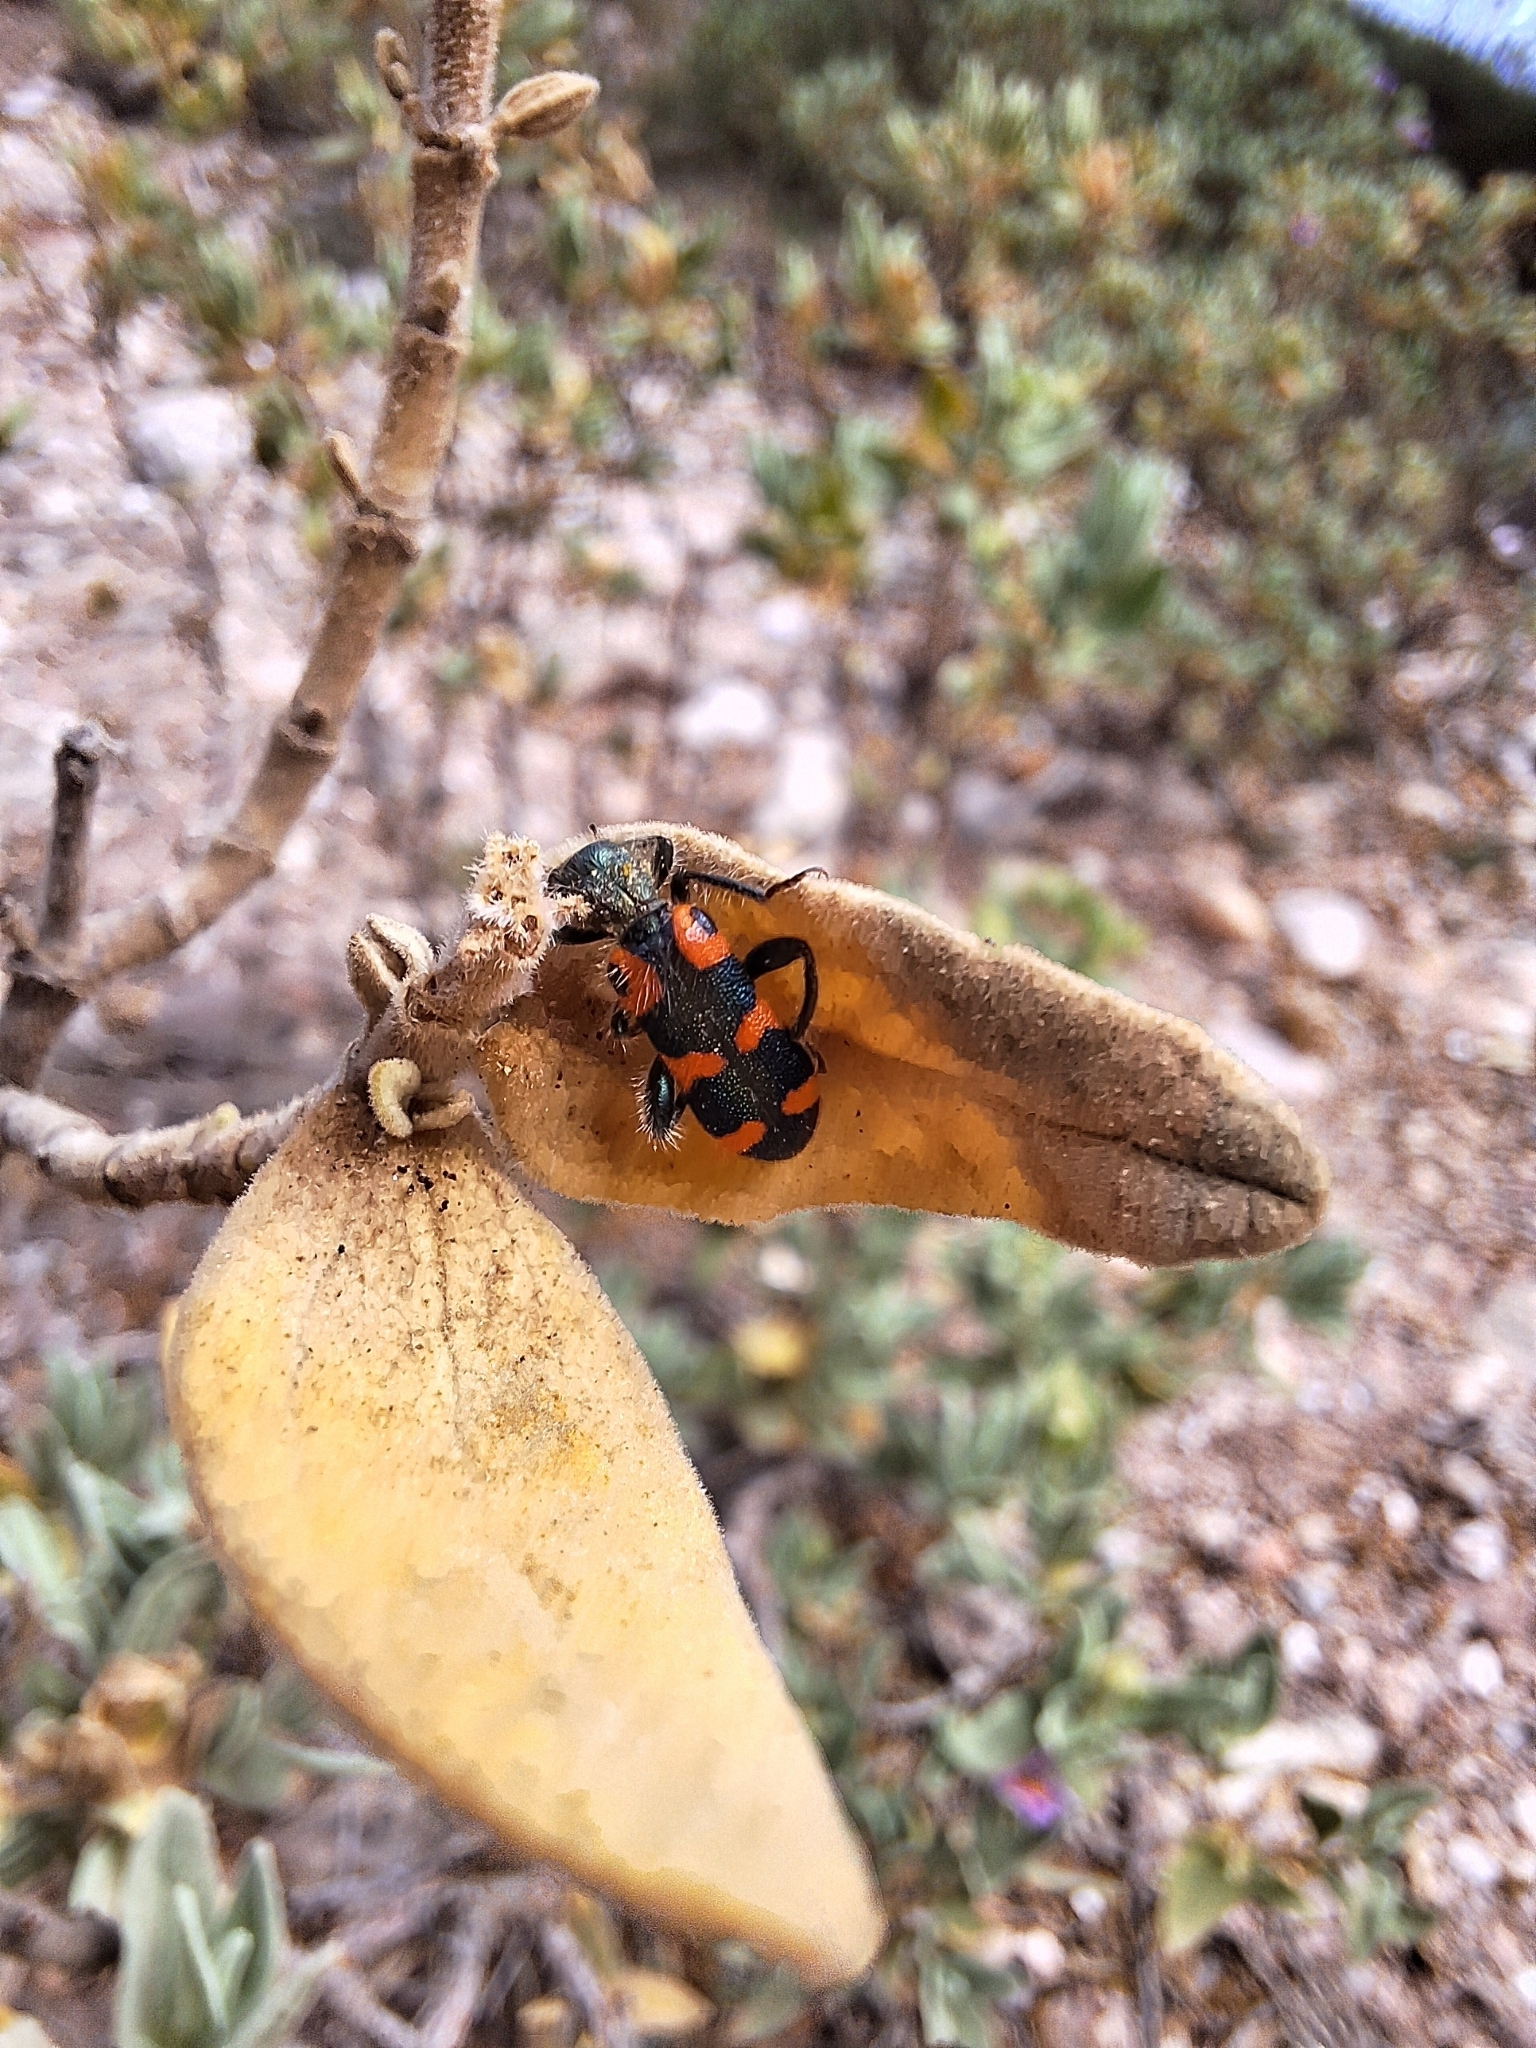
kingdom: Animalia
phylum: Arthropoda
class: Insecta
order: Coleoptera
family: Cleridae
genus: Trichodes
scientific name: Trichodes leucopsideus
